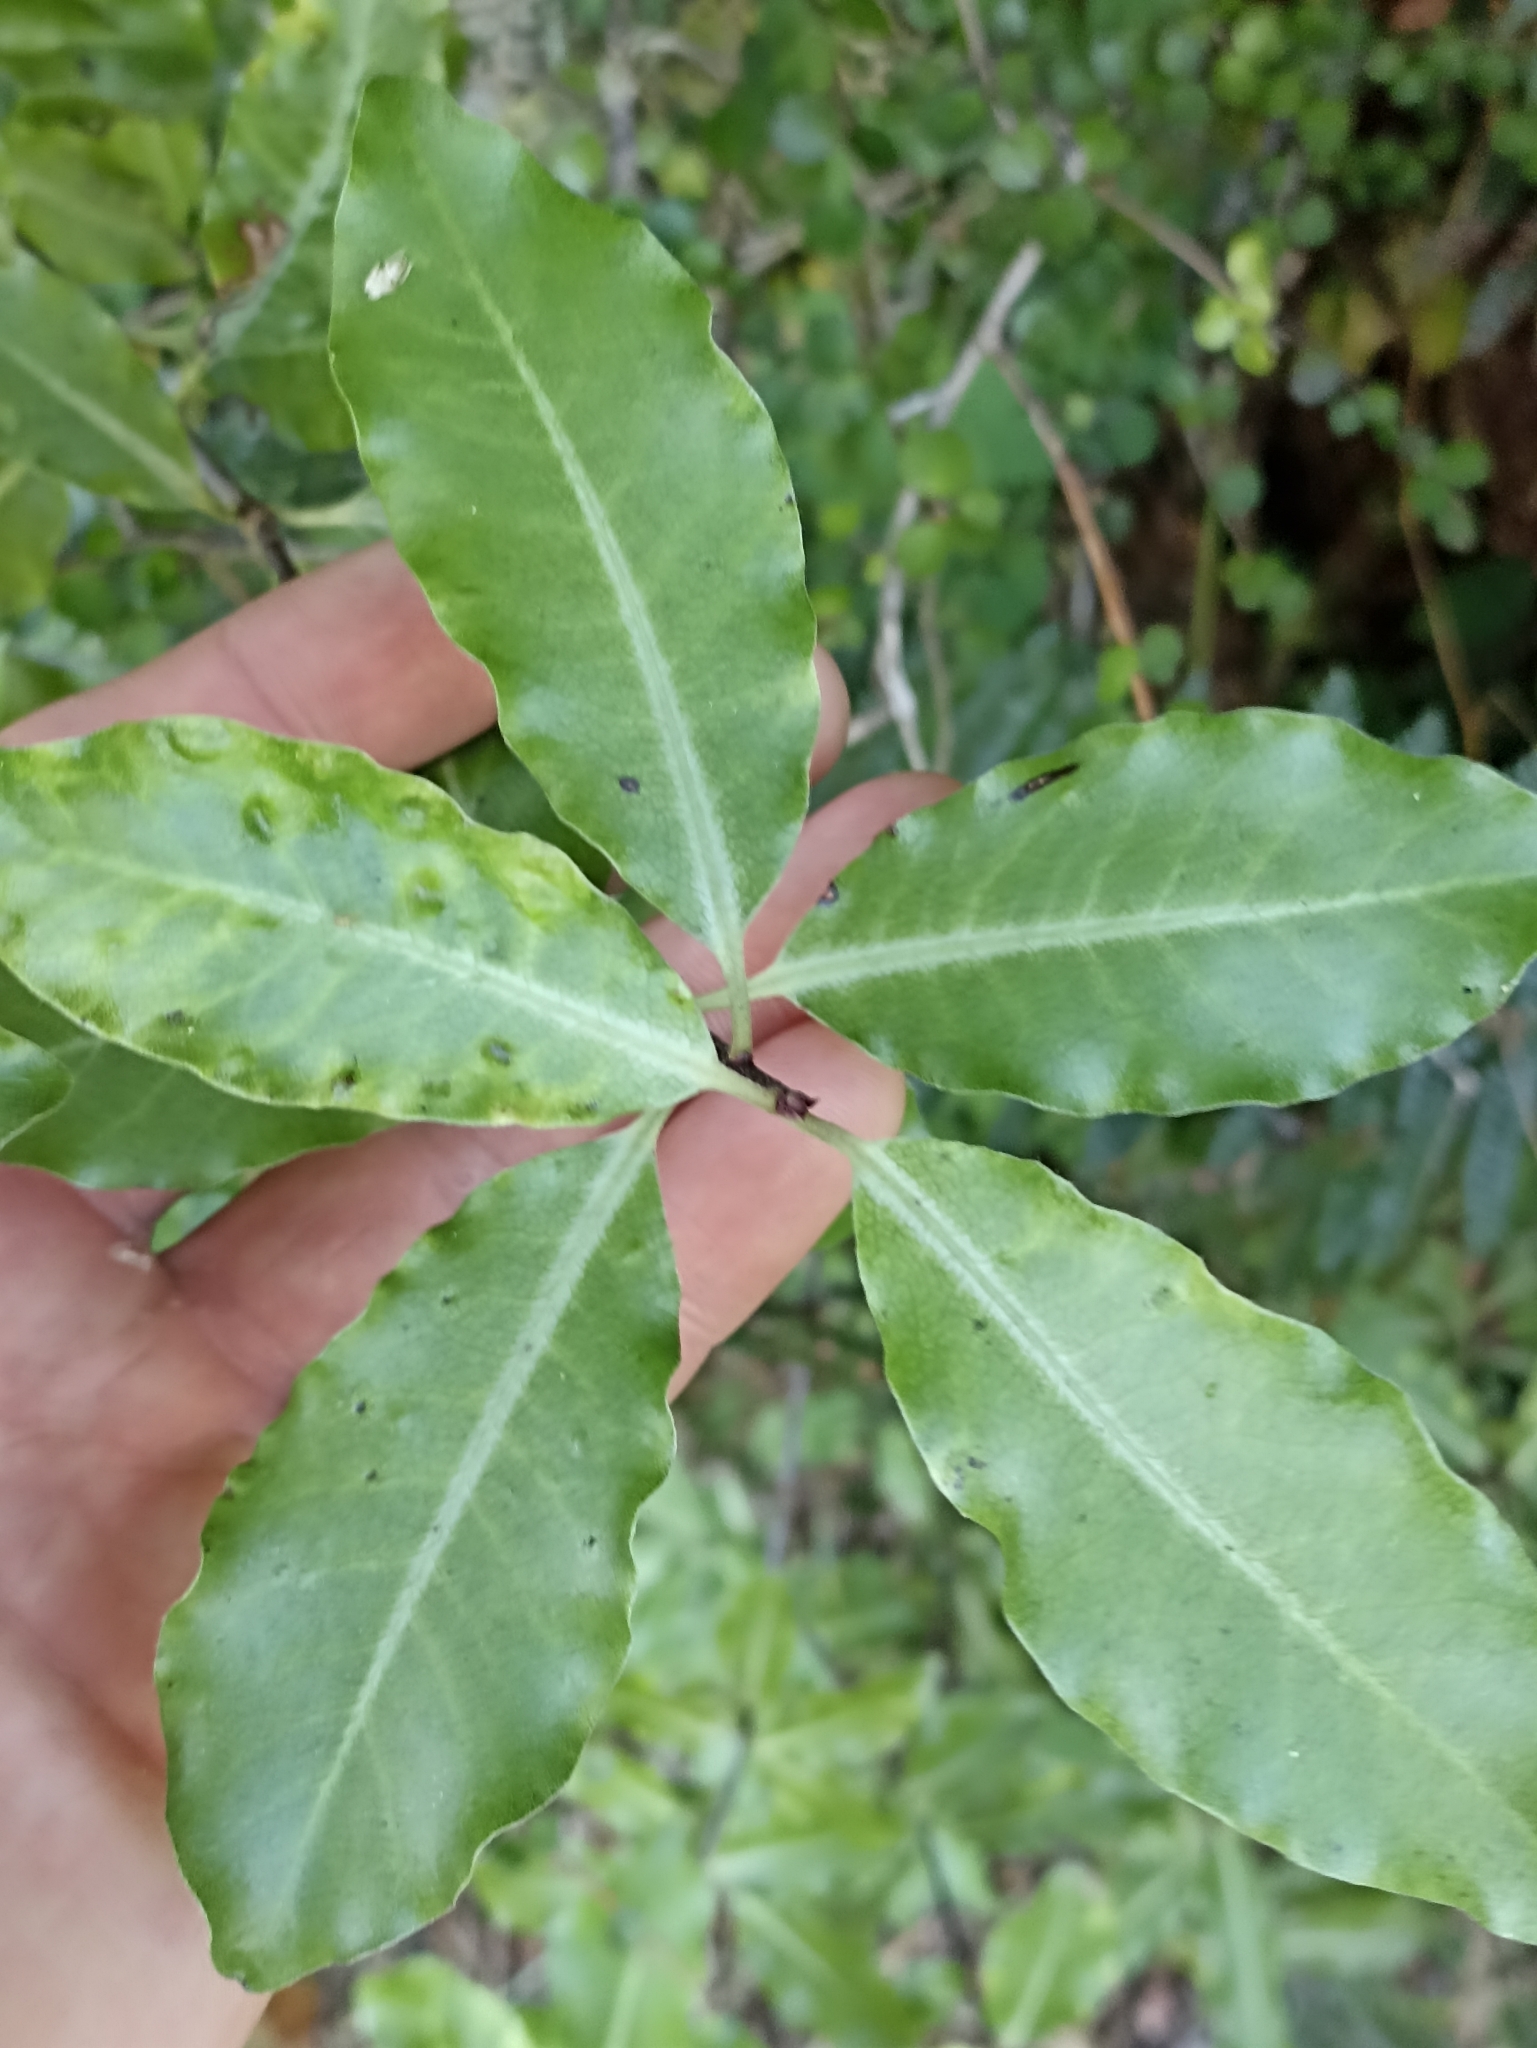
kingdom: Plantae
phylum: Tracheophyta
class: Magnoliopsida
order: Apiales
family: Pittosporaceae
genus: Pittosporum
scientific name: Pittosporum tenuifolium
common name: Kohuhu
